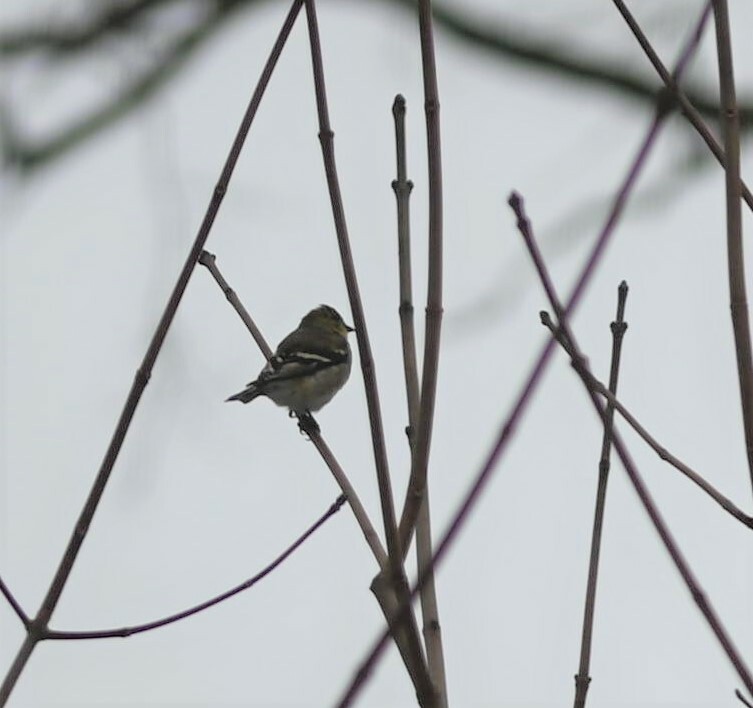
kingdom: Animalia
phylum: Chordata
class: Aves
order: Passeriformes
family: Fringillidae
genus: Spinus
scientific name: Spinus tristis
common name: American goldfinch
